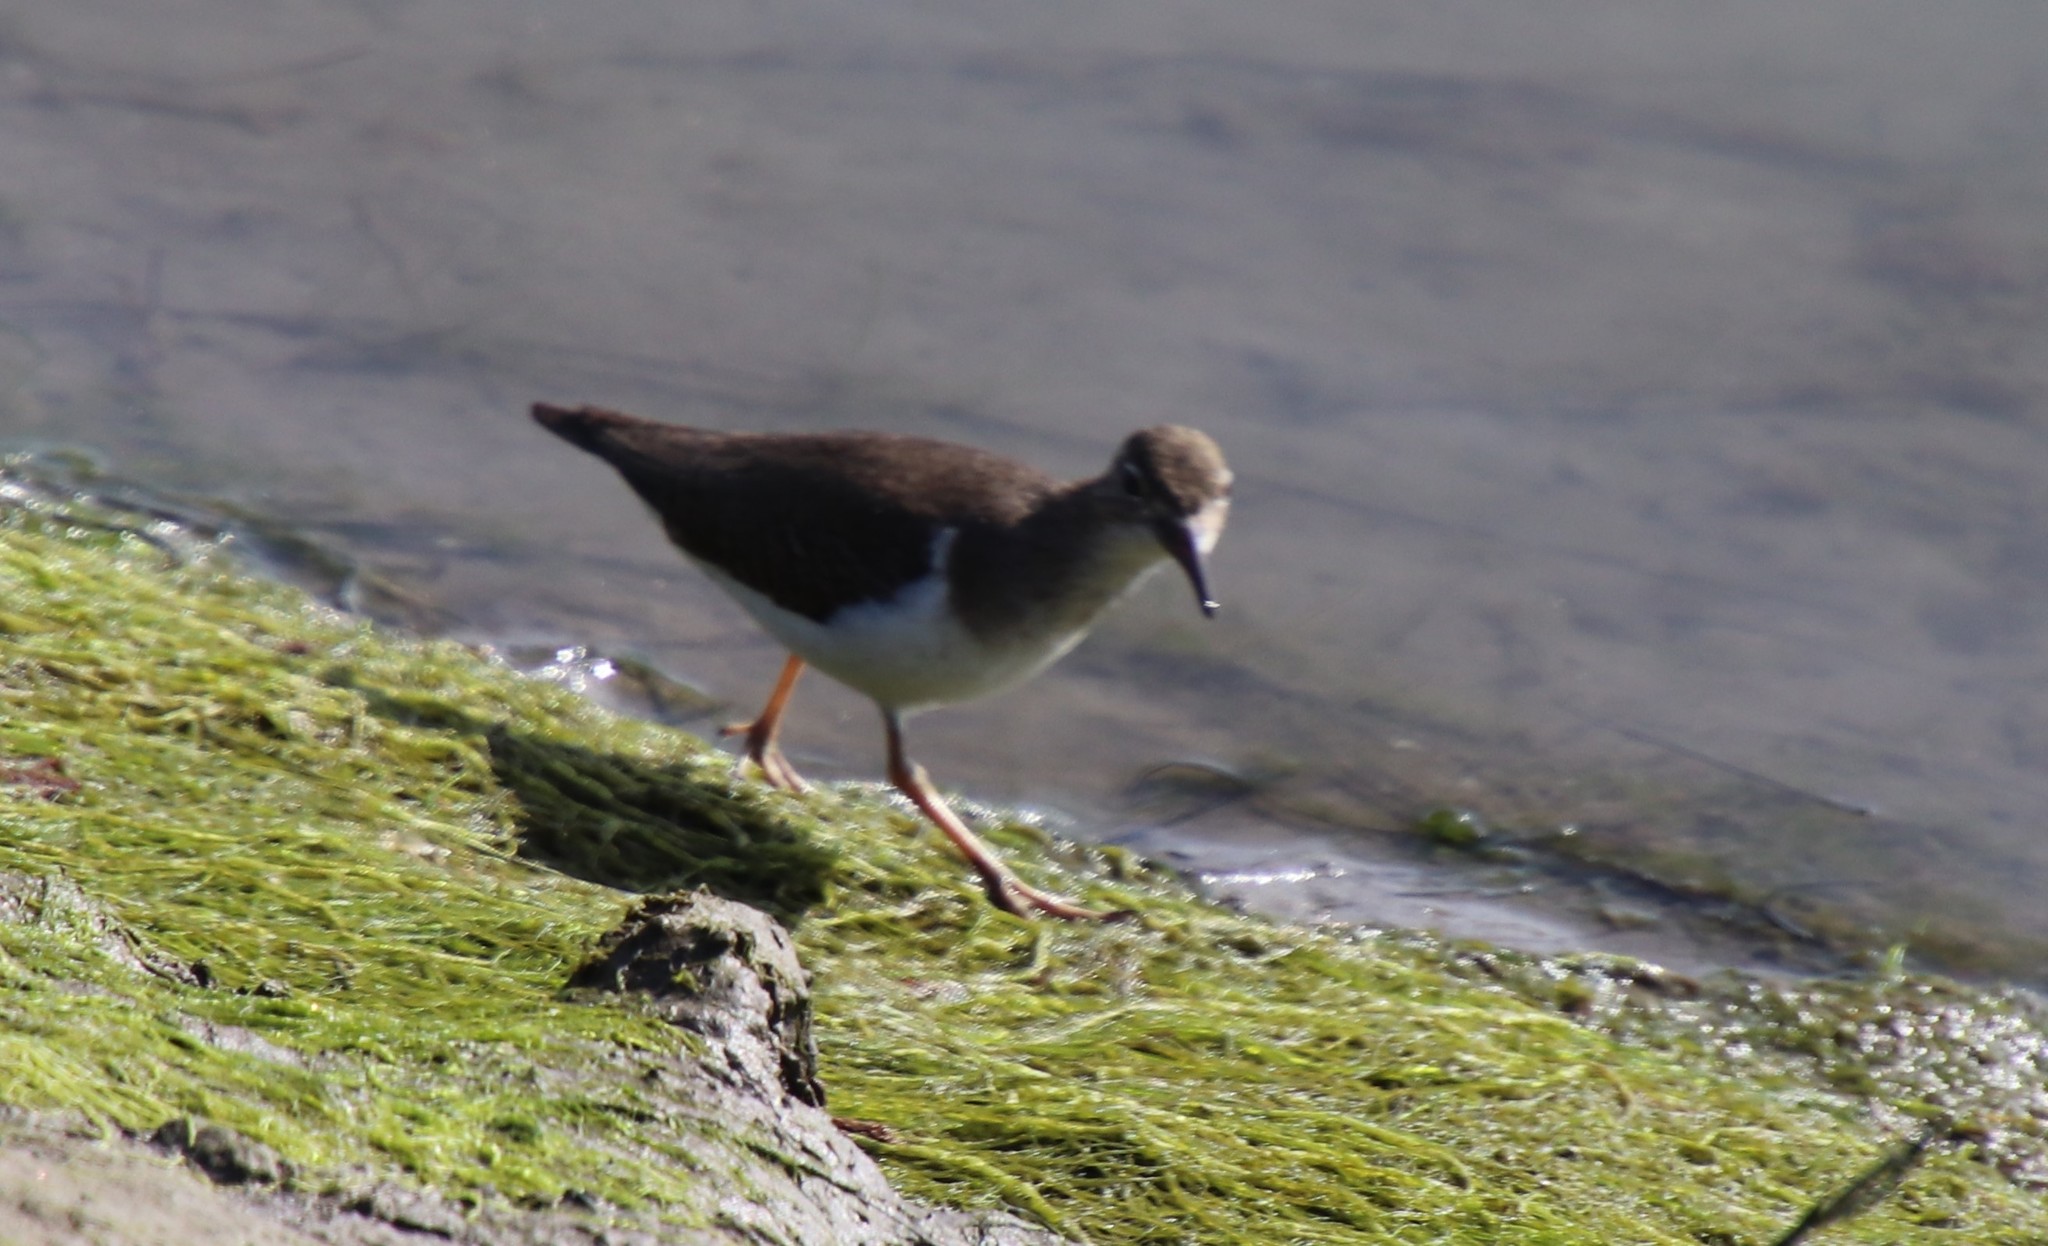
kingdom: Animalia
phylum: Chordata
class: Aves
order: Charadriiformes
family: Scolopacidae
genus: Actitis
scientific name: Actitis macularius
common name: Spotted sandpiper
